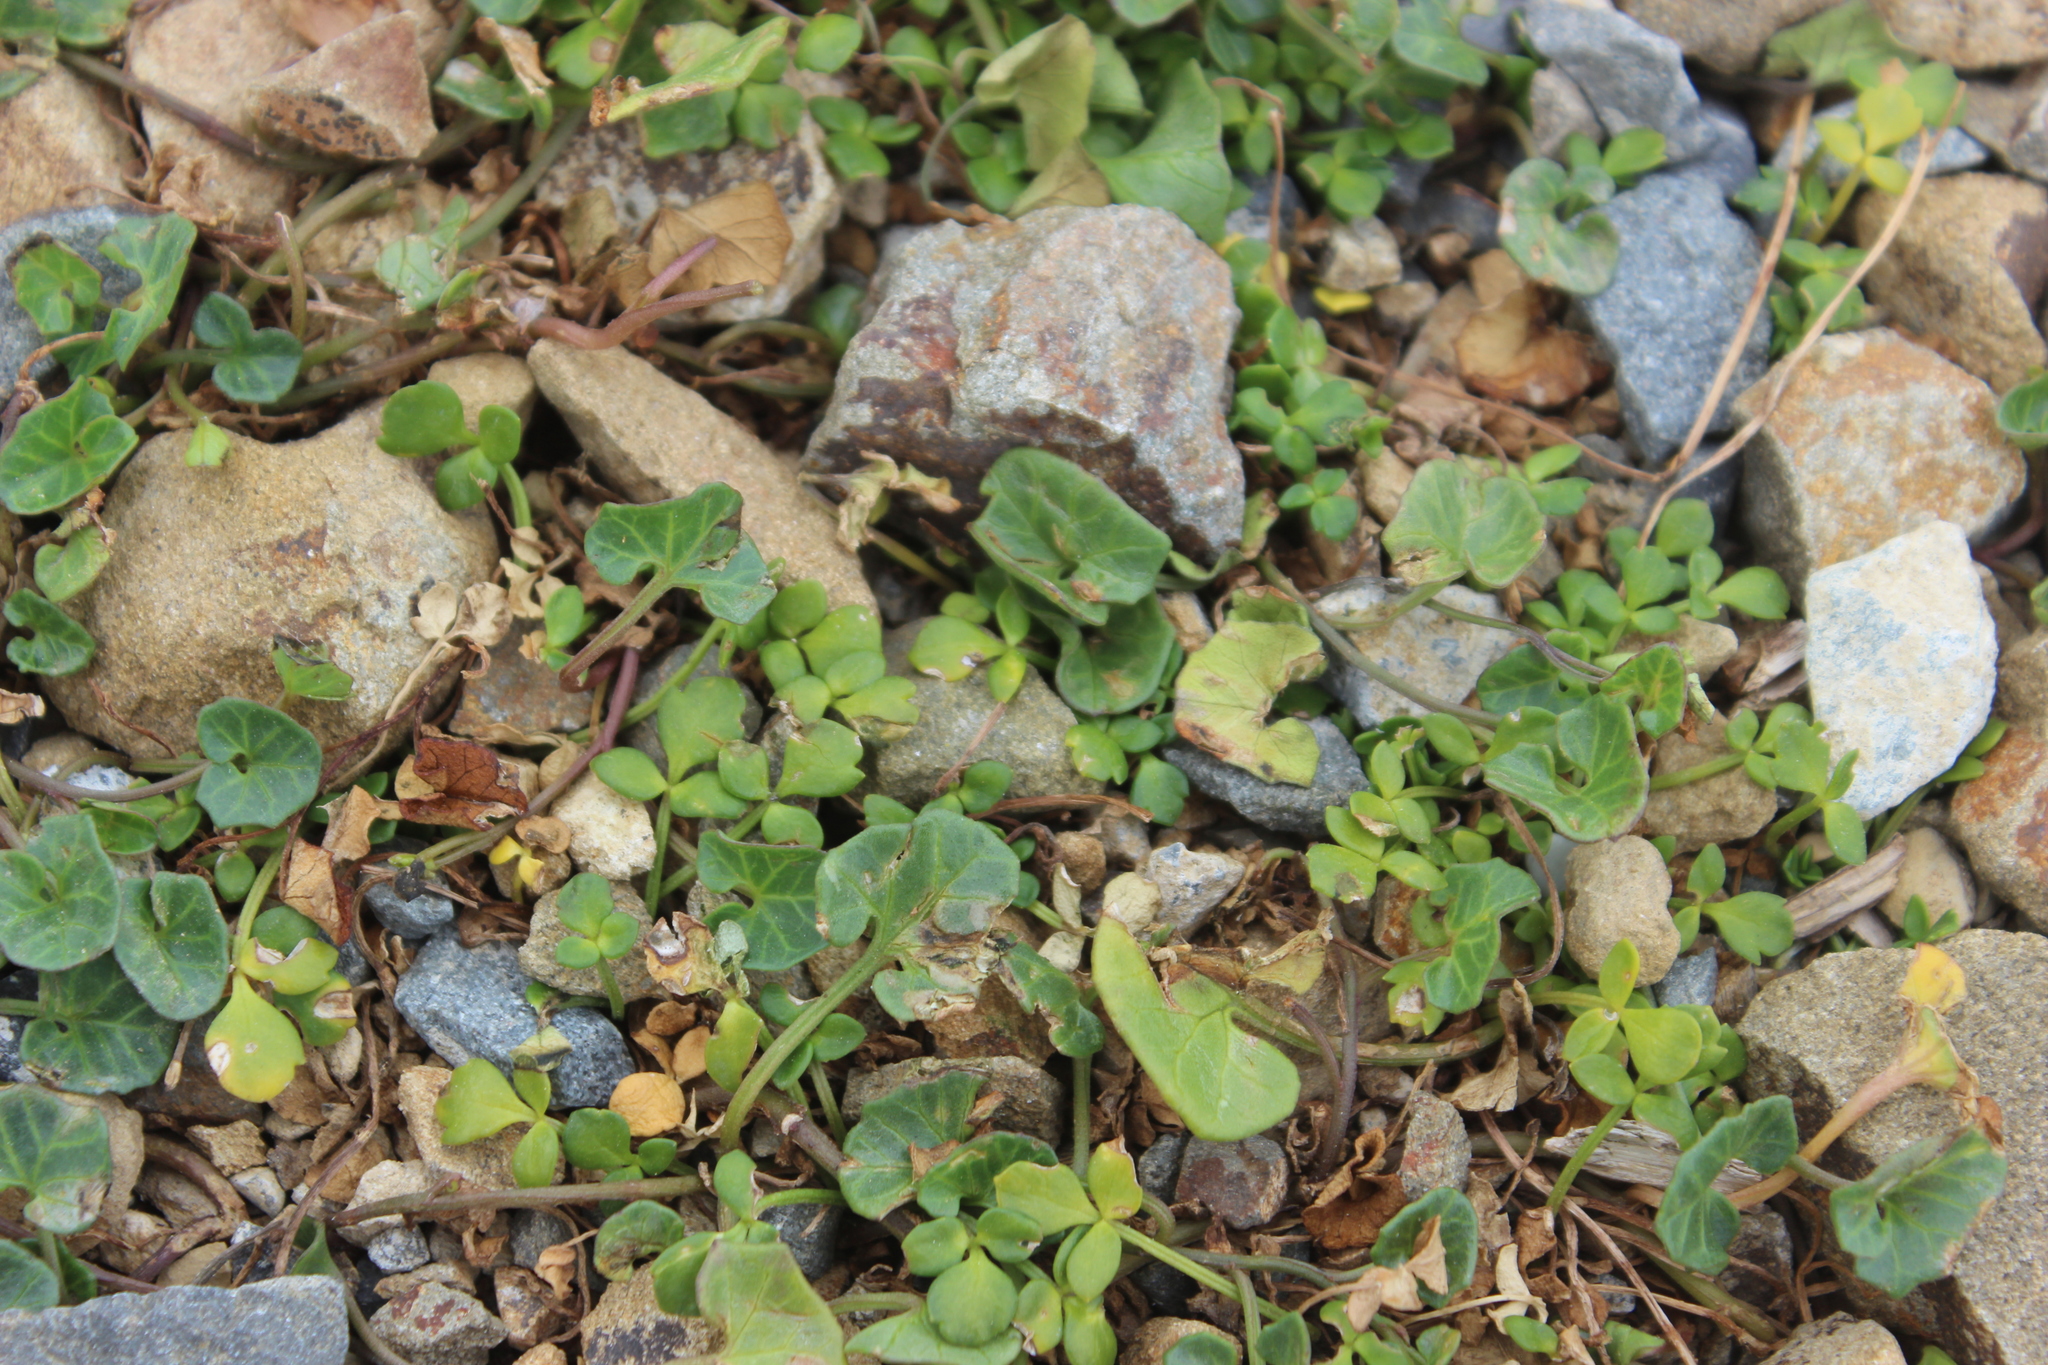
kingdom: Plantae
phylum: Tracheophyta
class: Magnoliopsida
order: Solanales
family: Convolvulaceae
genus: Calystegia
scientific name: Calystegia soldanella
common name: Sea bindweed
